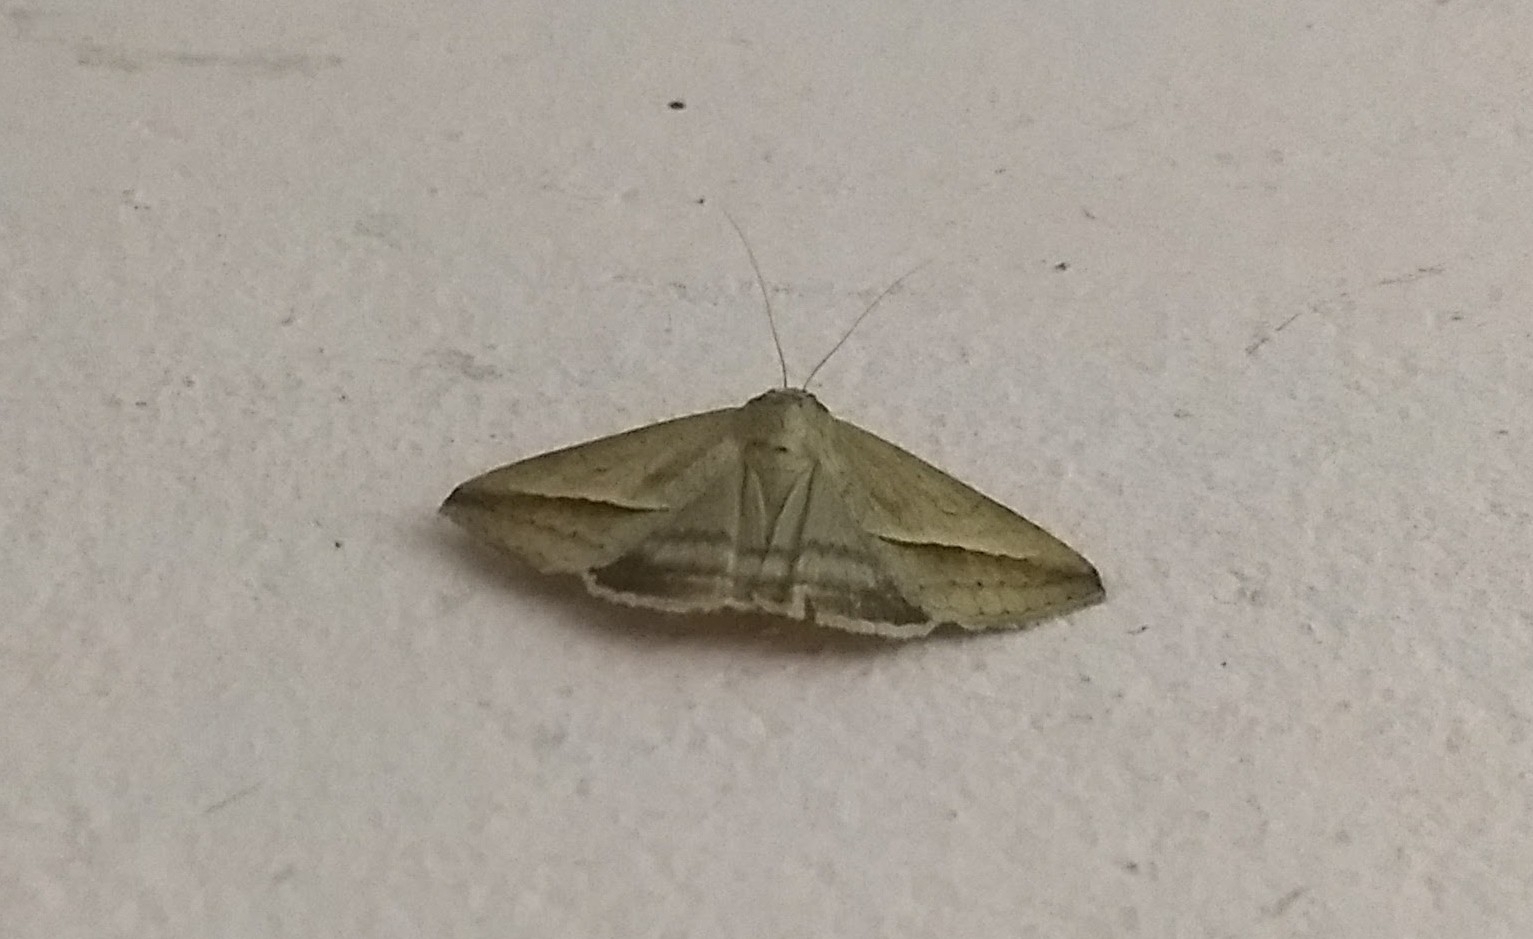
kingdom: Animalia
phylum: Arthropoda
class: Insecta
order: Lepidoptera
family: Erebidae
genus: Mocis
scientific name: Mocis frugalis
